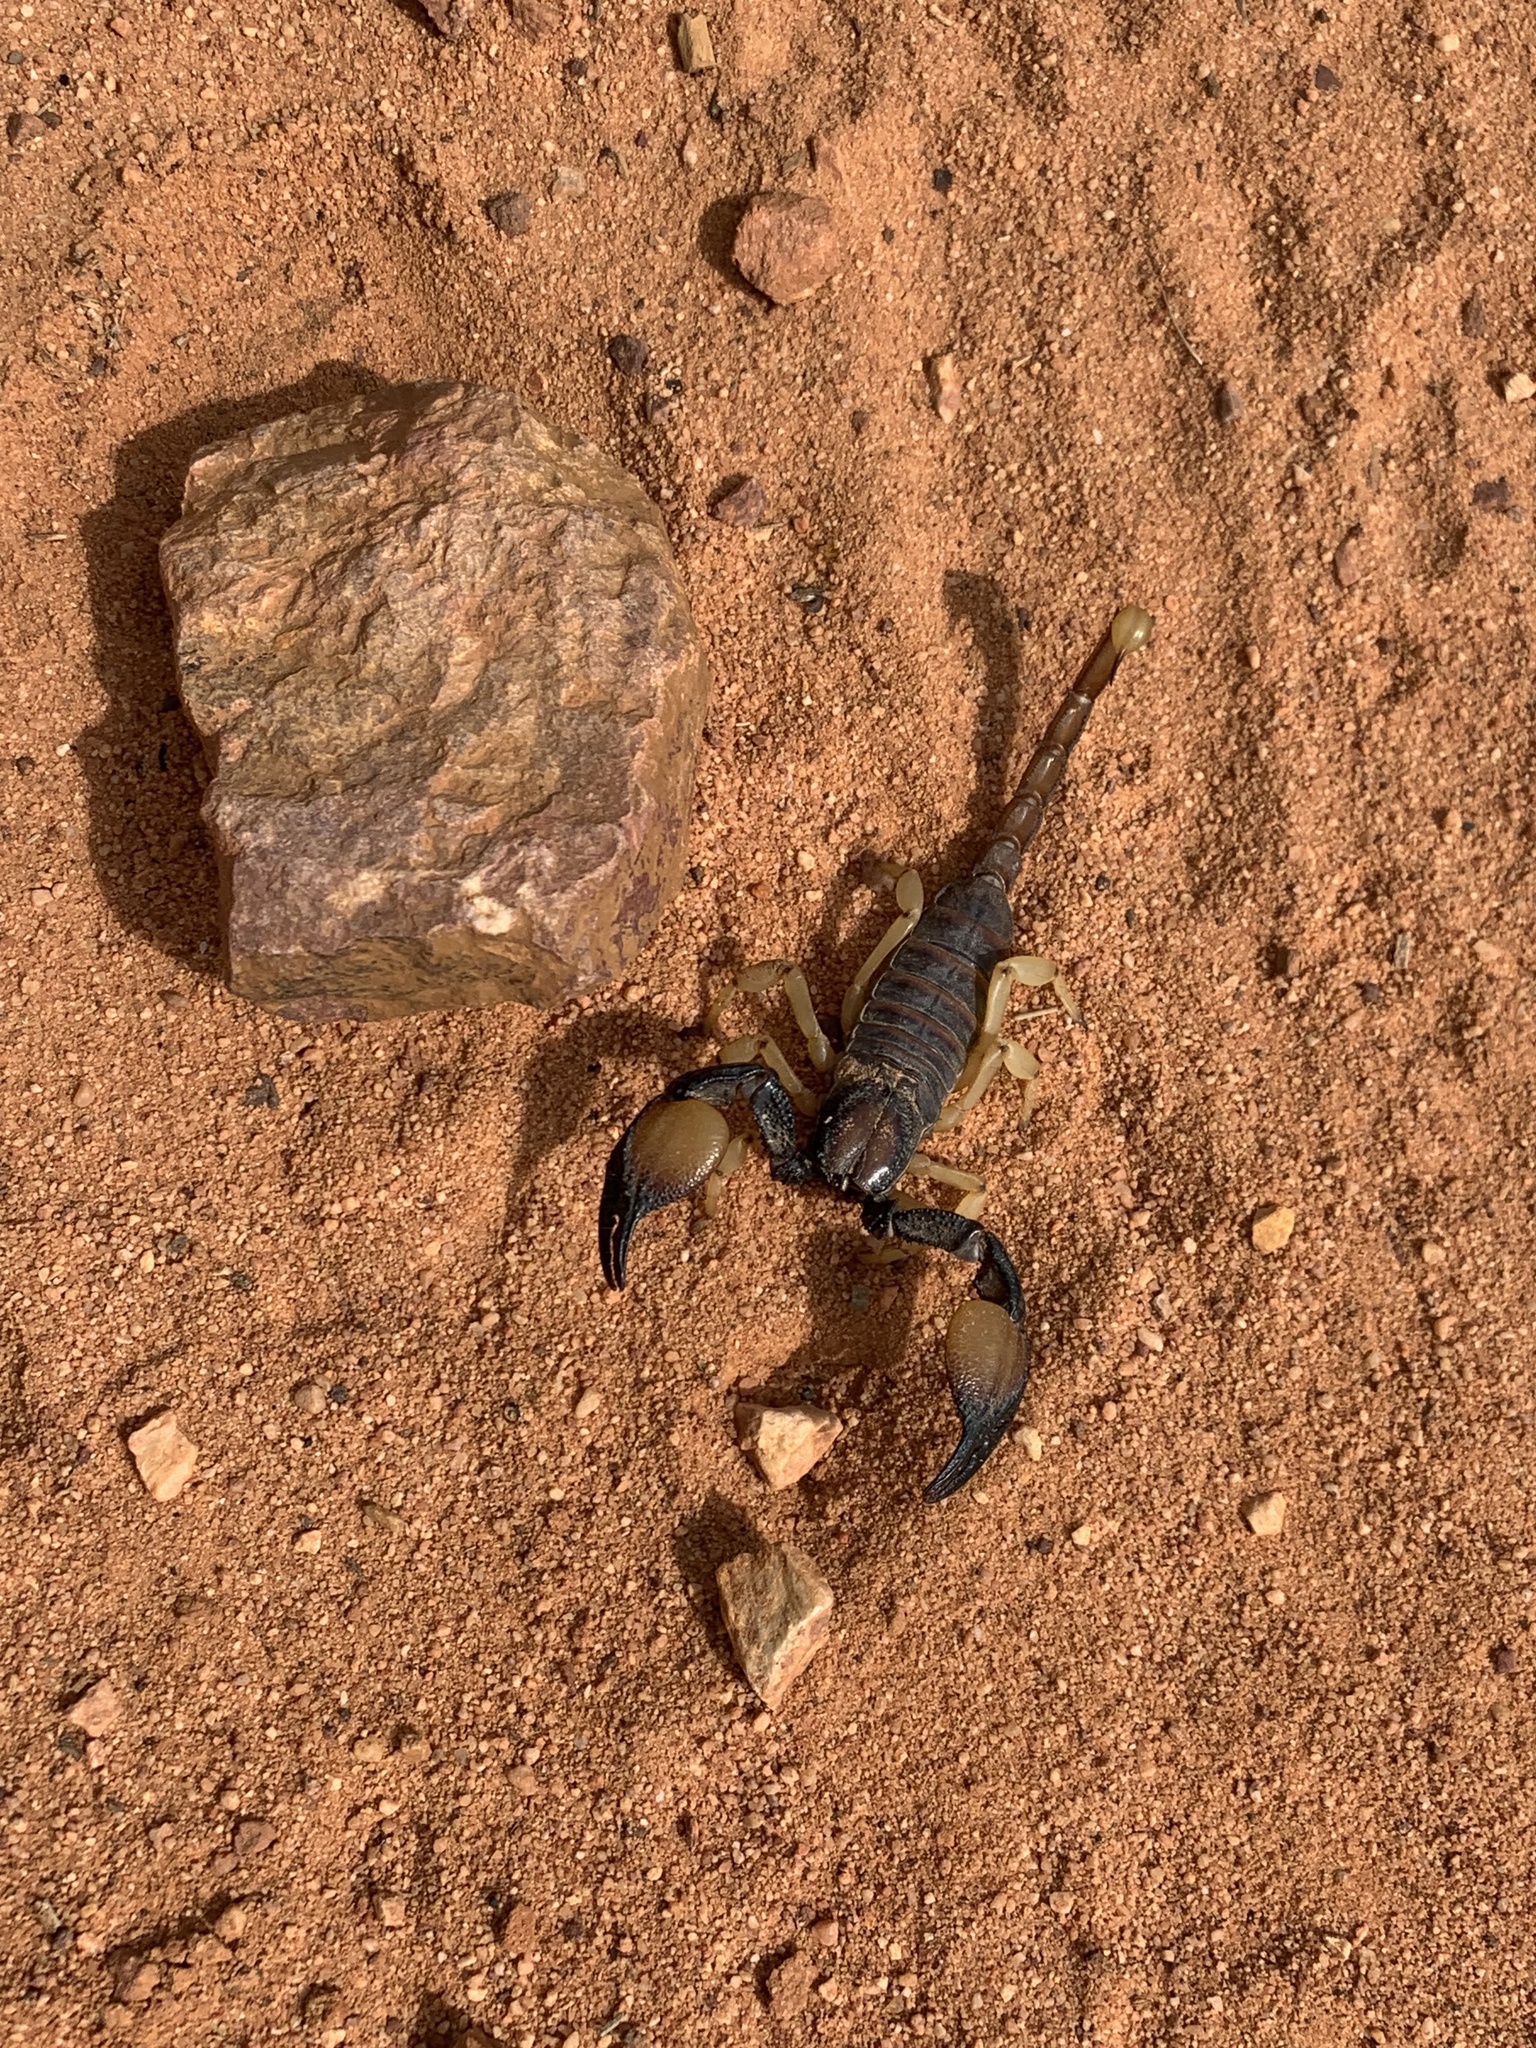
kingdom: Animalia
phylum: Arthropoda
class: Arachnida
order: Scorpiones
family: Scorpionidae
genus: Opistophthalmus
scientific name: Opistophthalmus pallipes
